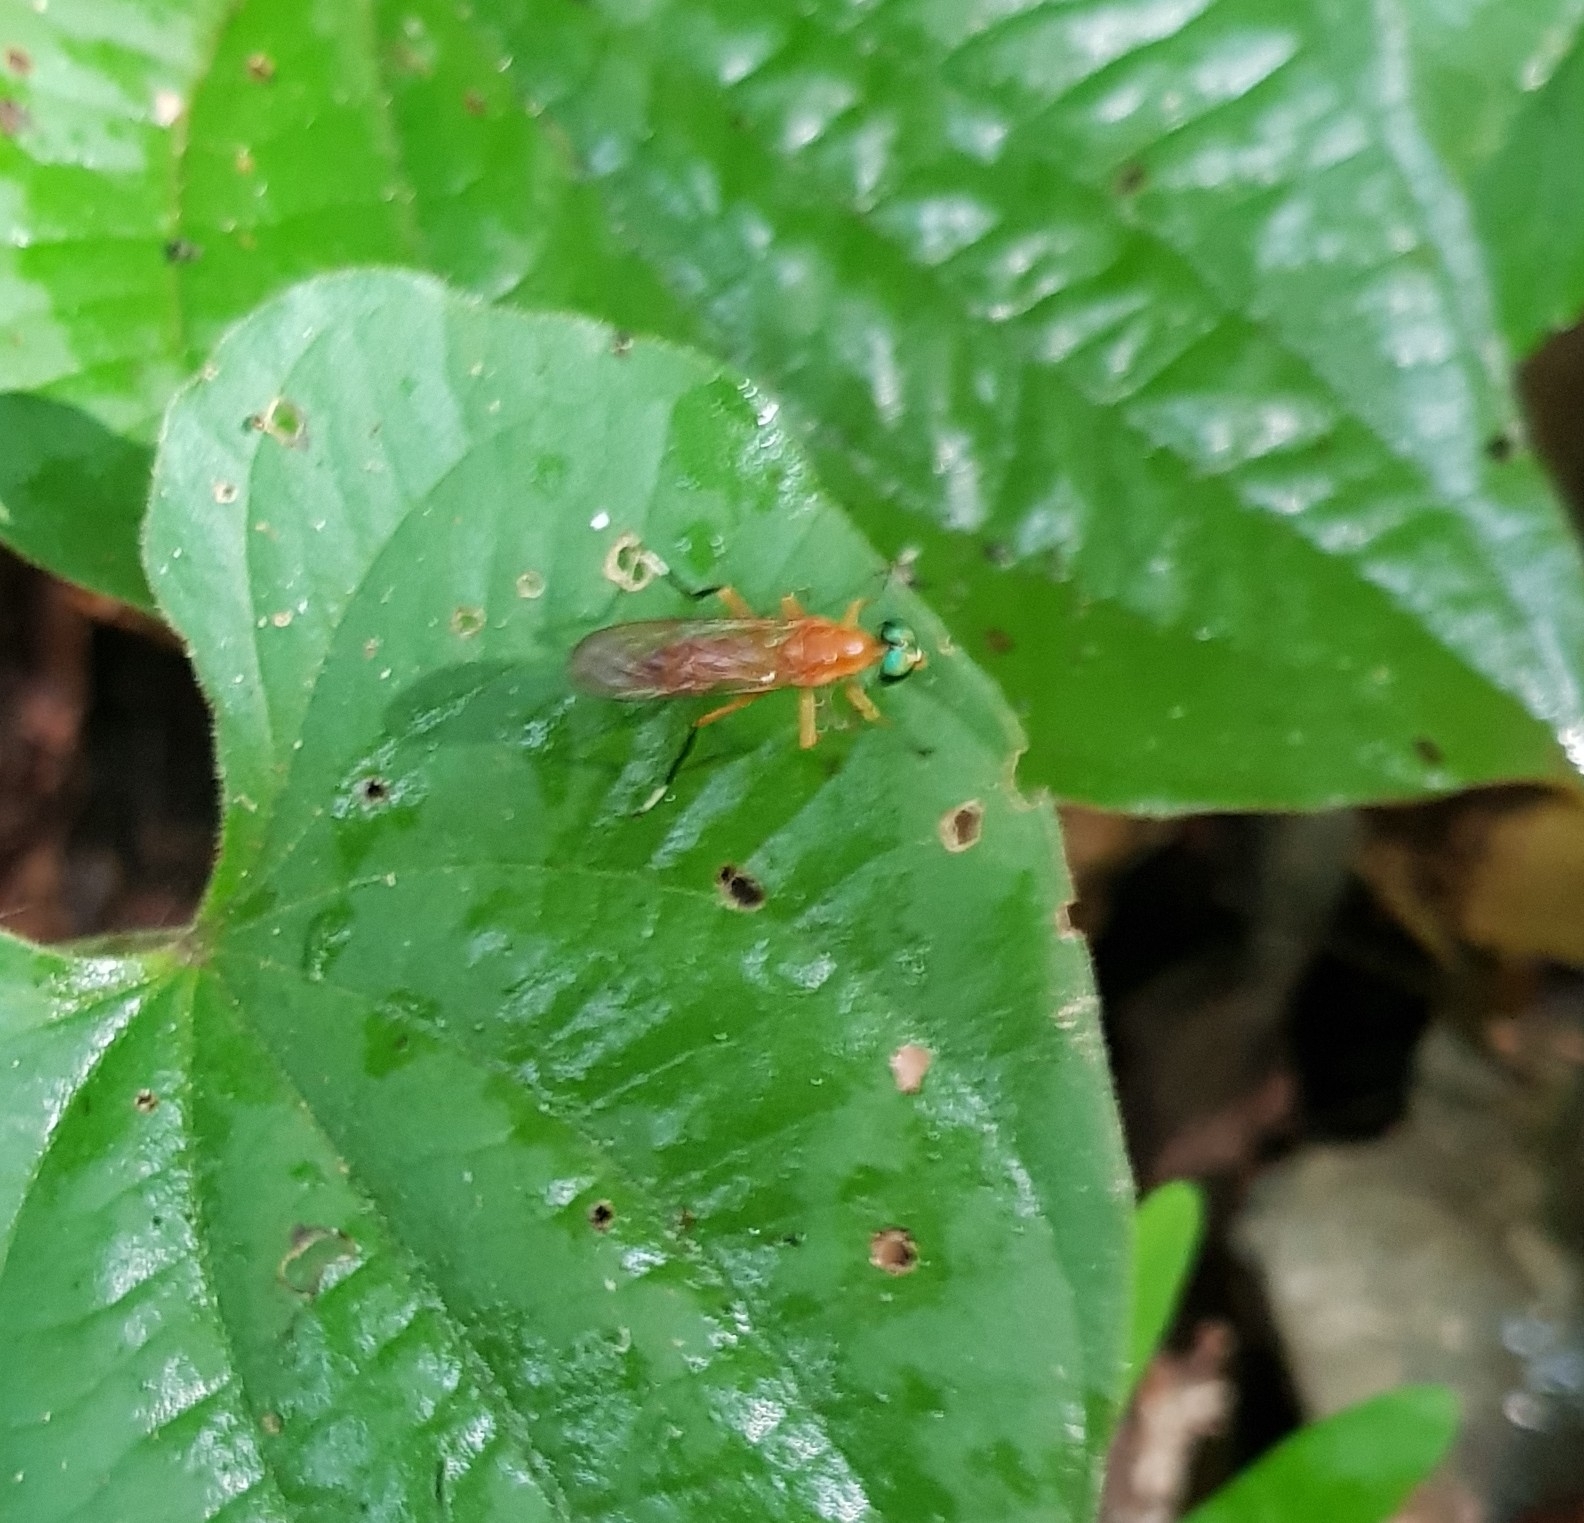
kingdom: Animalia
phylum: Arthropoda
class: Insecta
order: Diptera
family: Stratiomyidae
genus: Ptecticus
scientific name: Ptecticus testaceus
